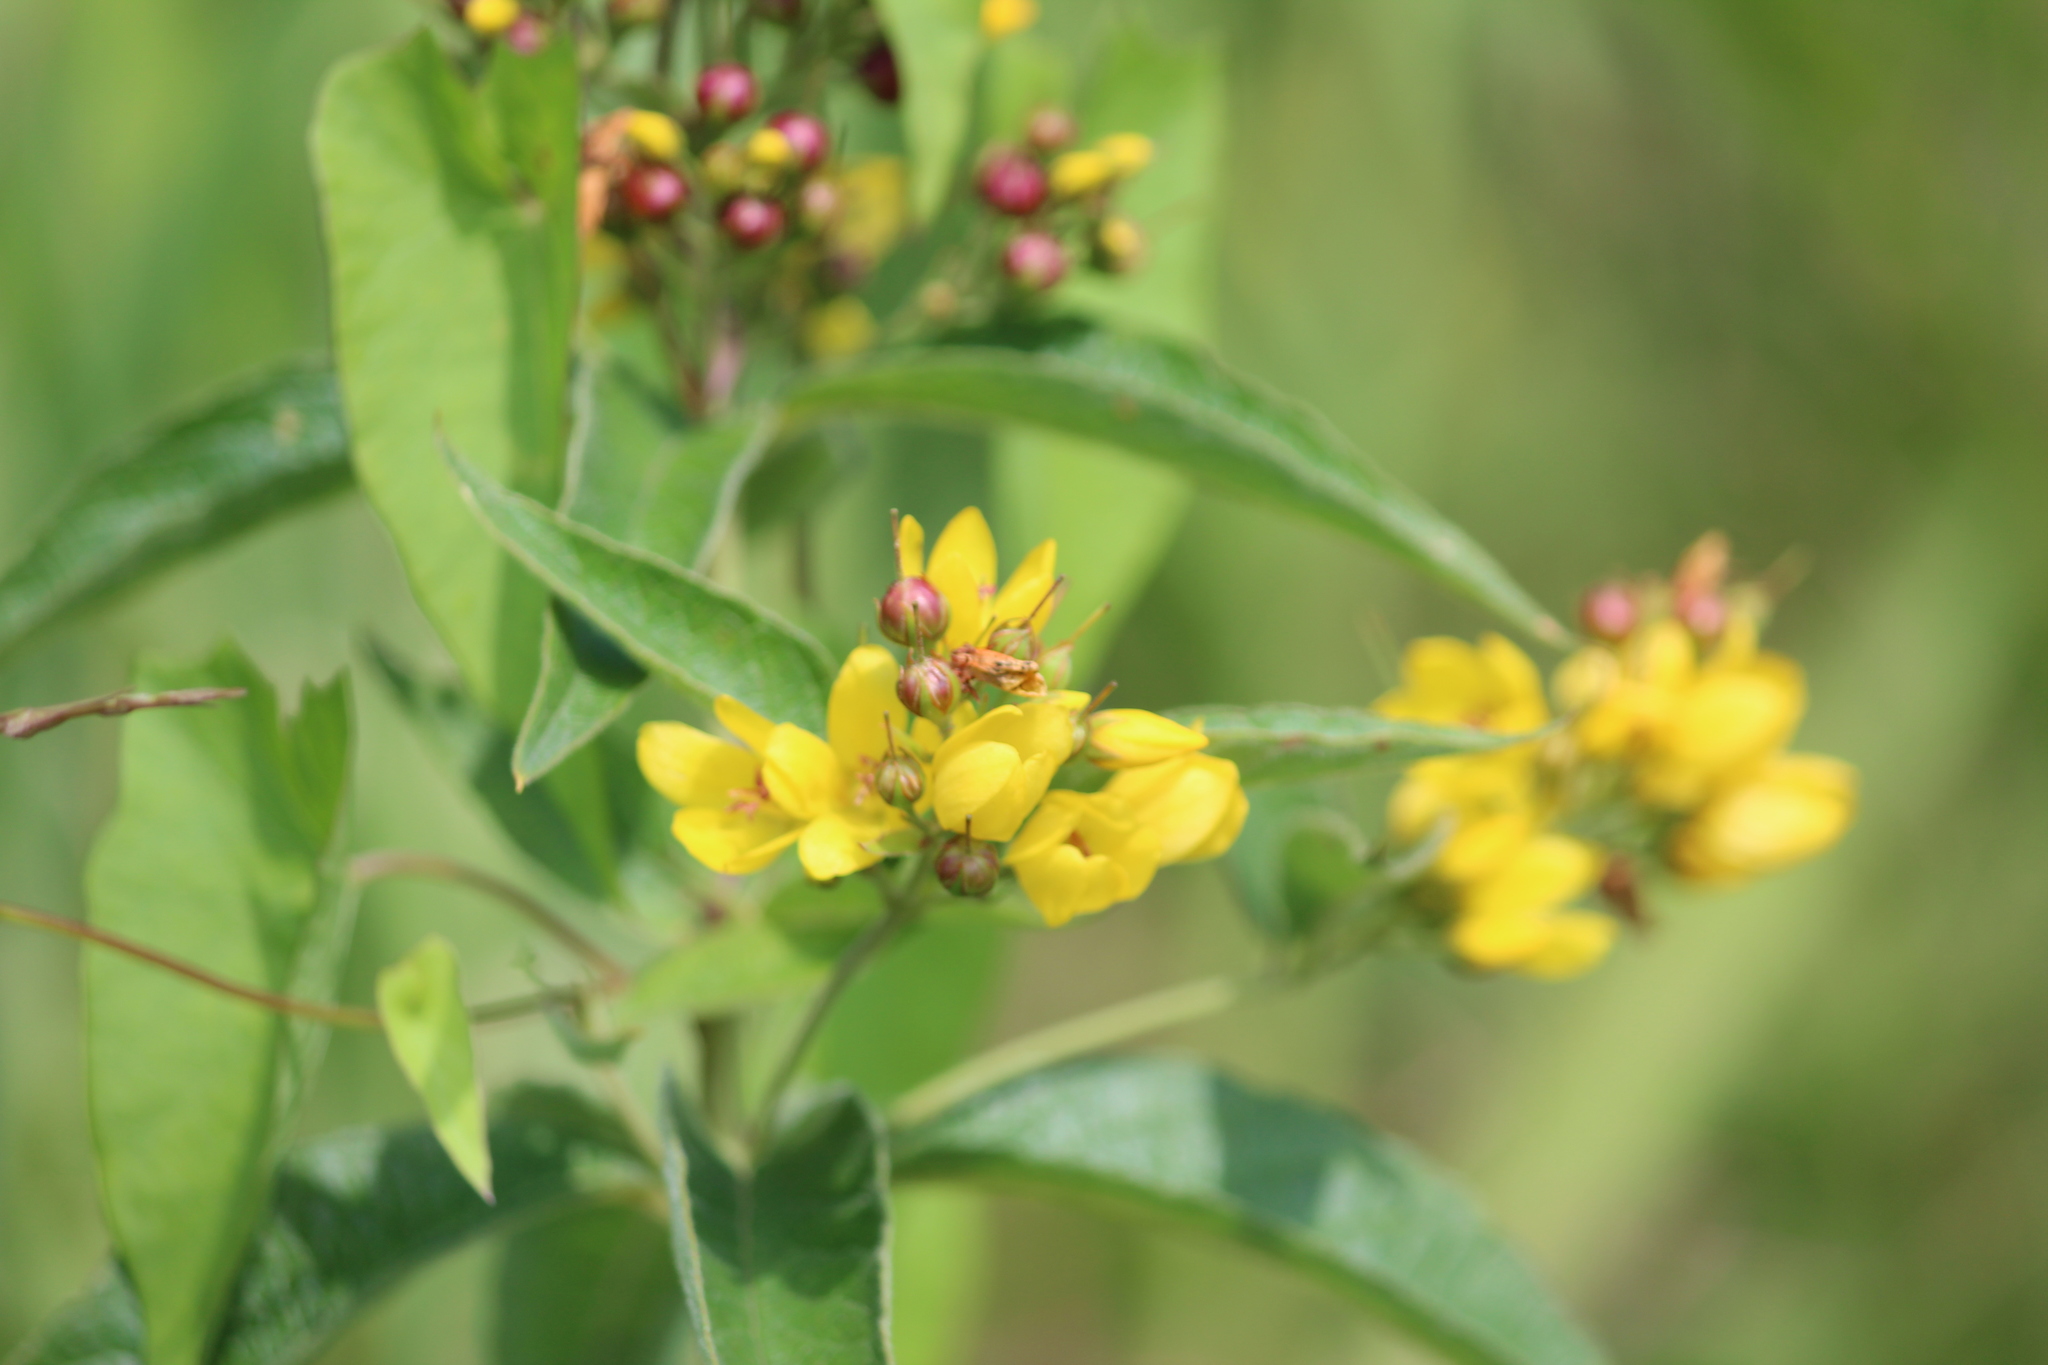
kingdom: Plantae
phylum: Tracheophyta
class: Magnoliopsida
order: Ericales
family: Primulaceae
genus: Lysimachia
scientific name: Lysimachia vulgaris
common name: Yellow loosestrife
